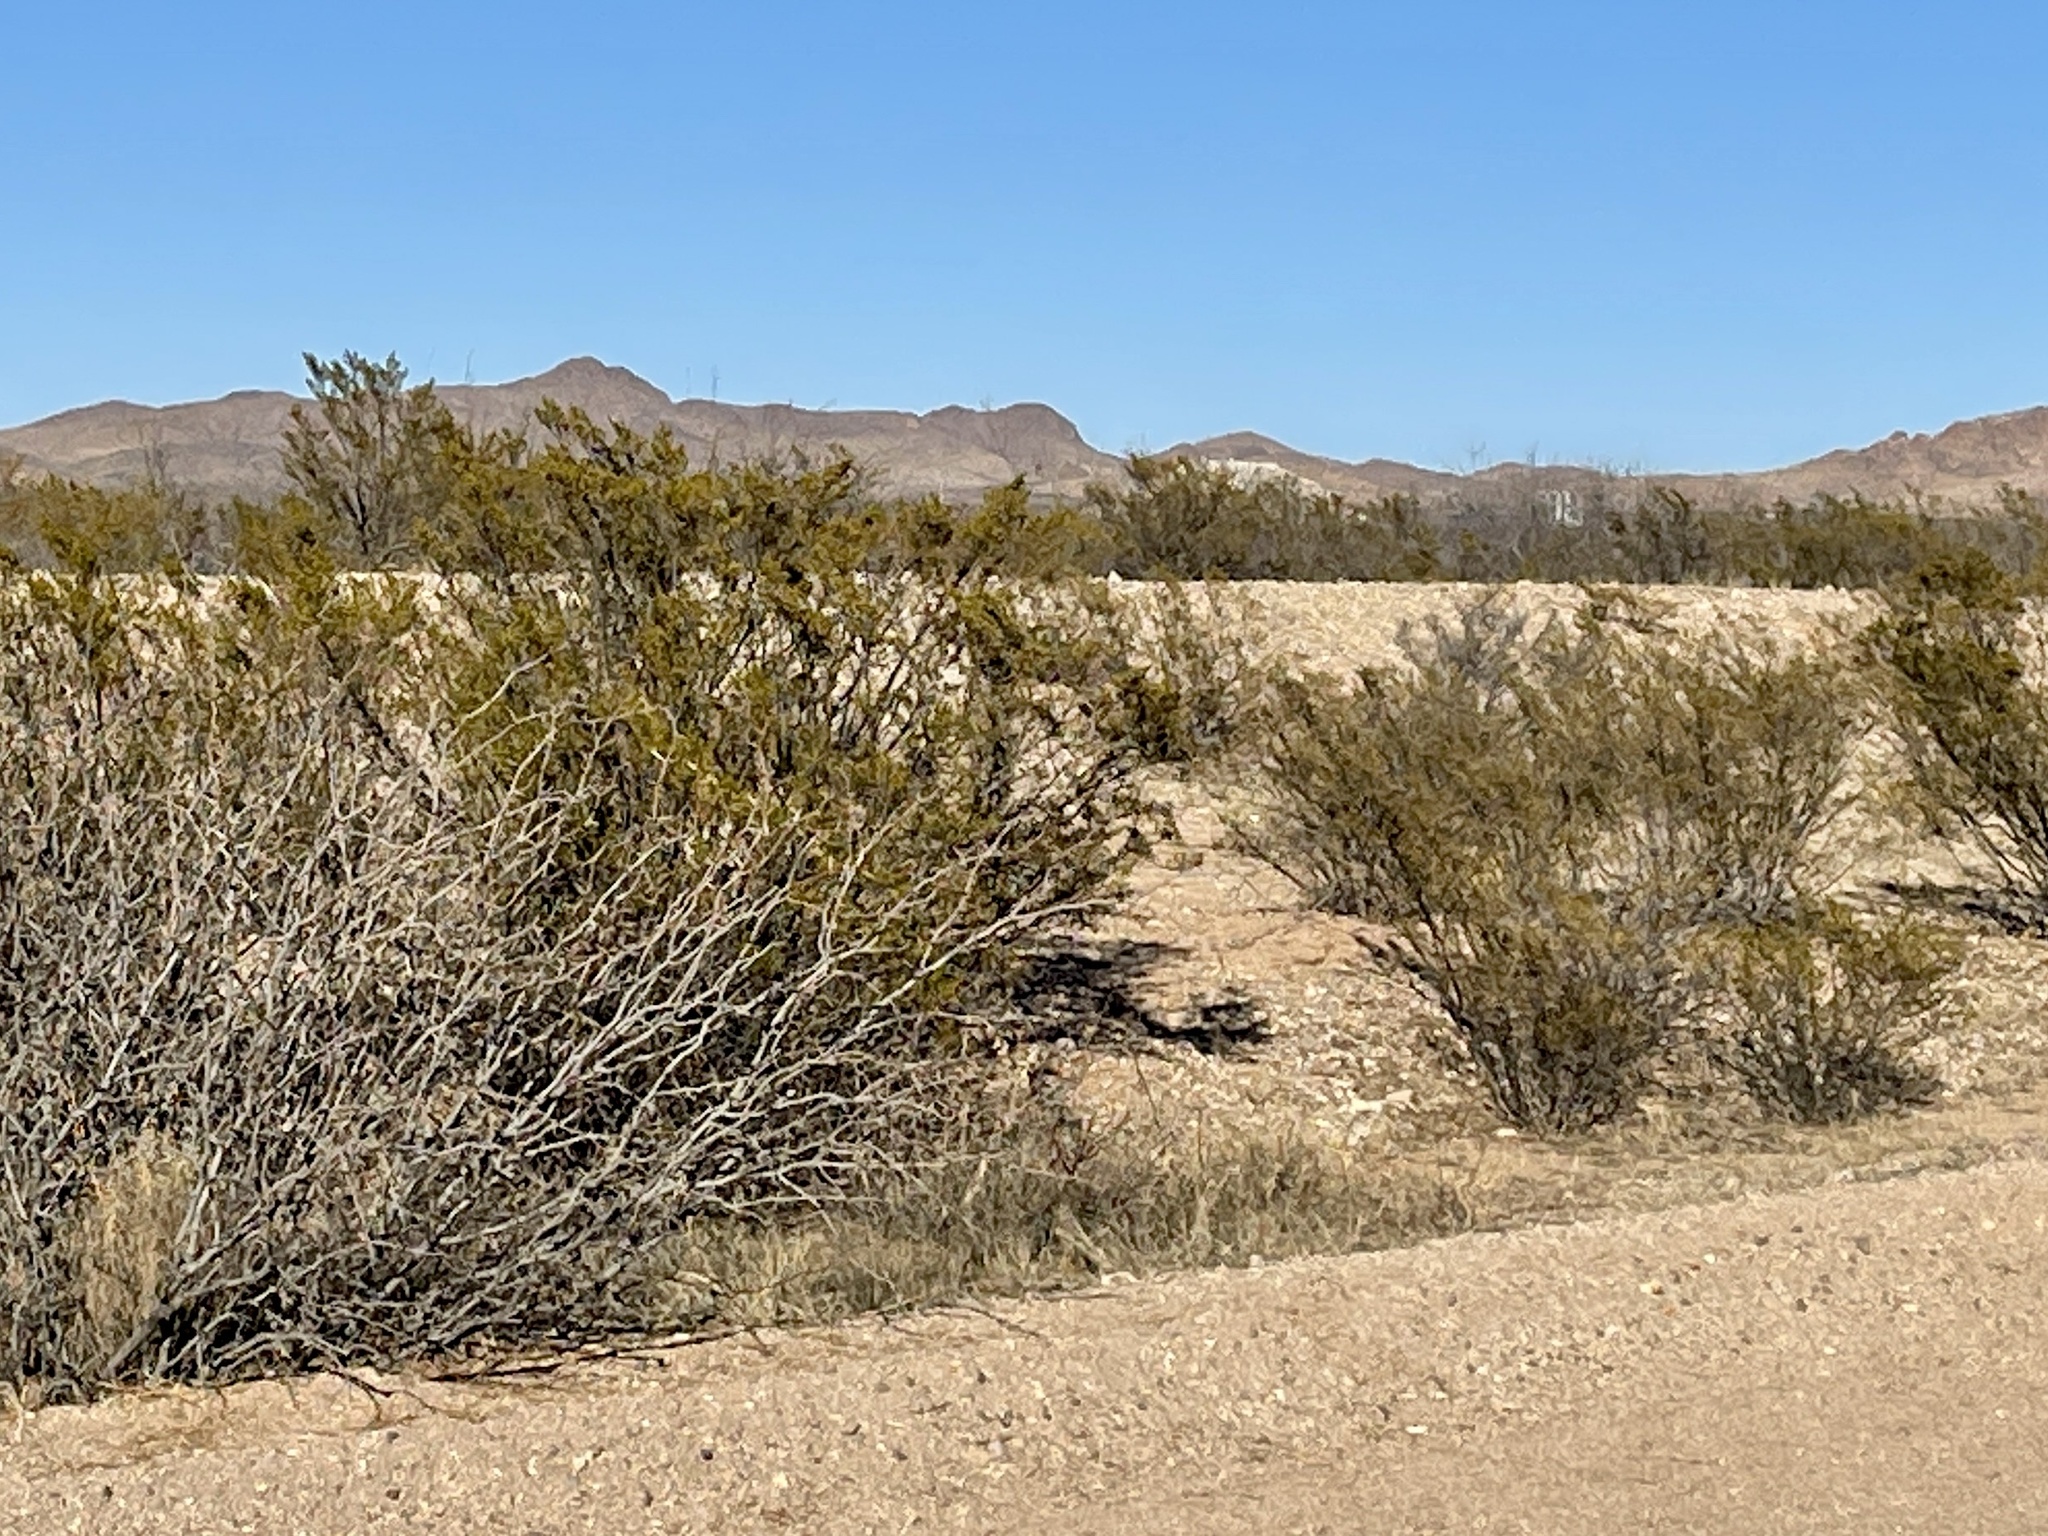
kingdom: Plantae
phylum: Tracheophyta
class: Magnoliopsida
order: Zygophyllales
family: Zygophyllaceae
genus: Larrea
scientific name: Larrea tridentata
